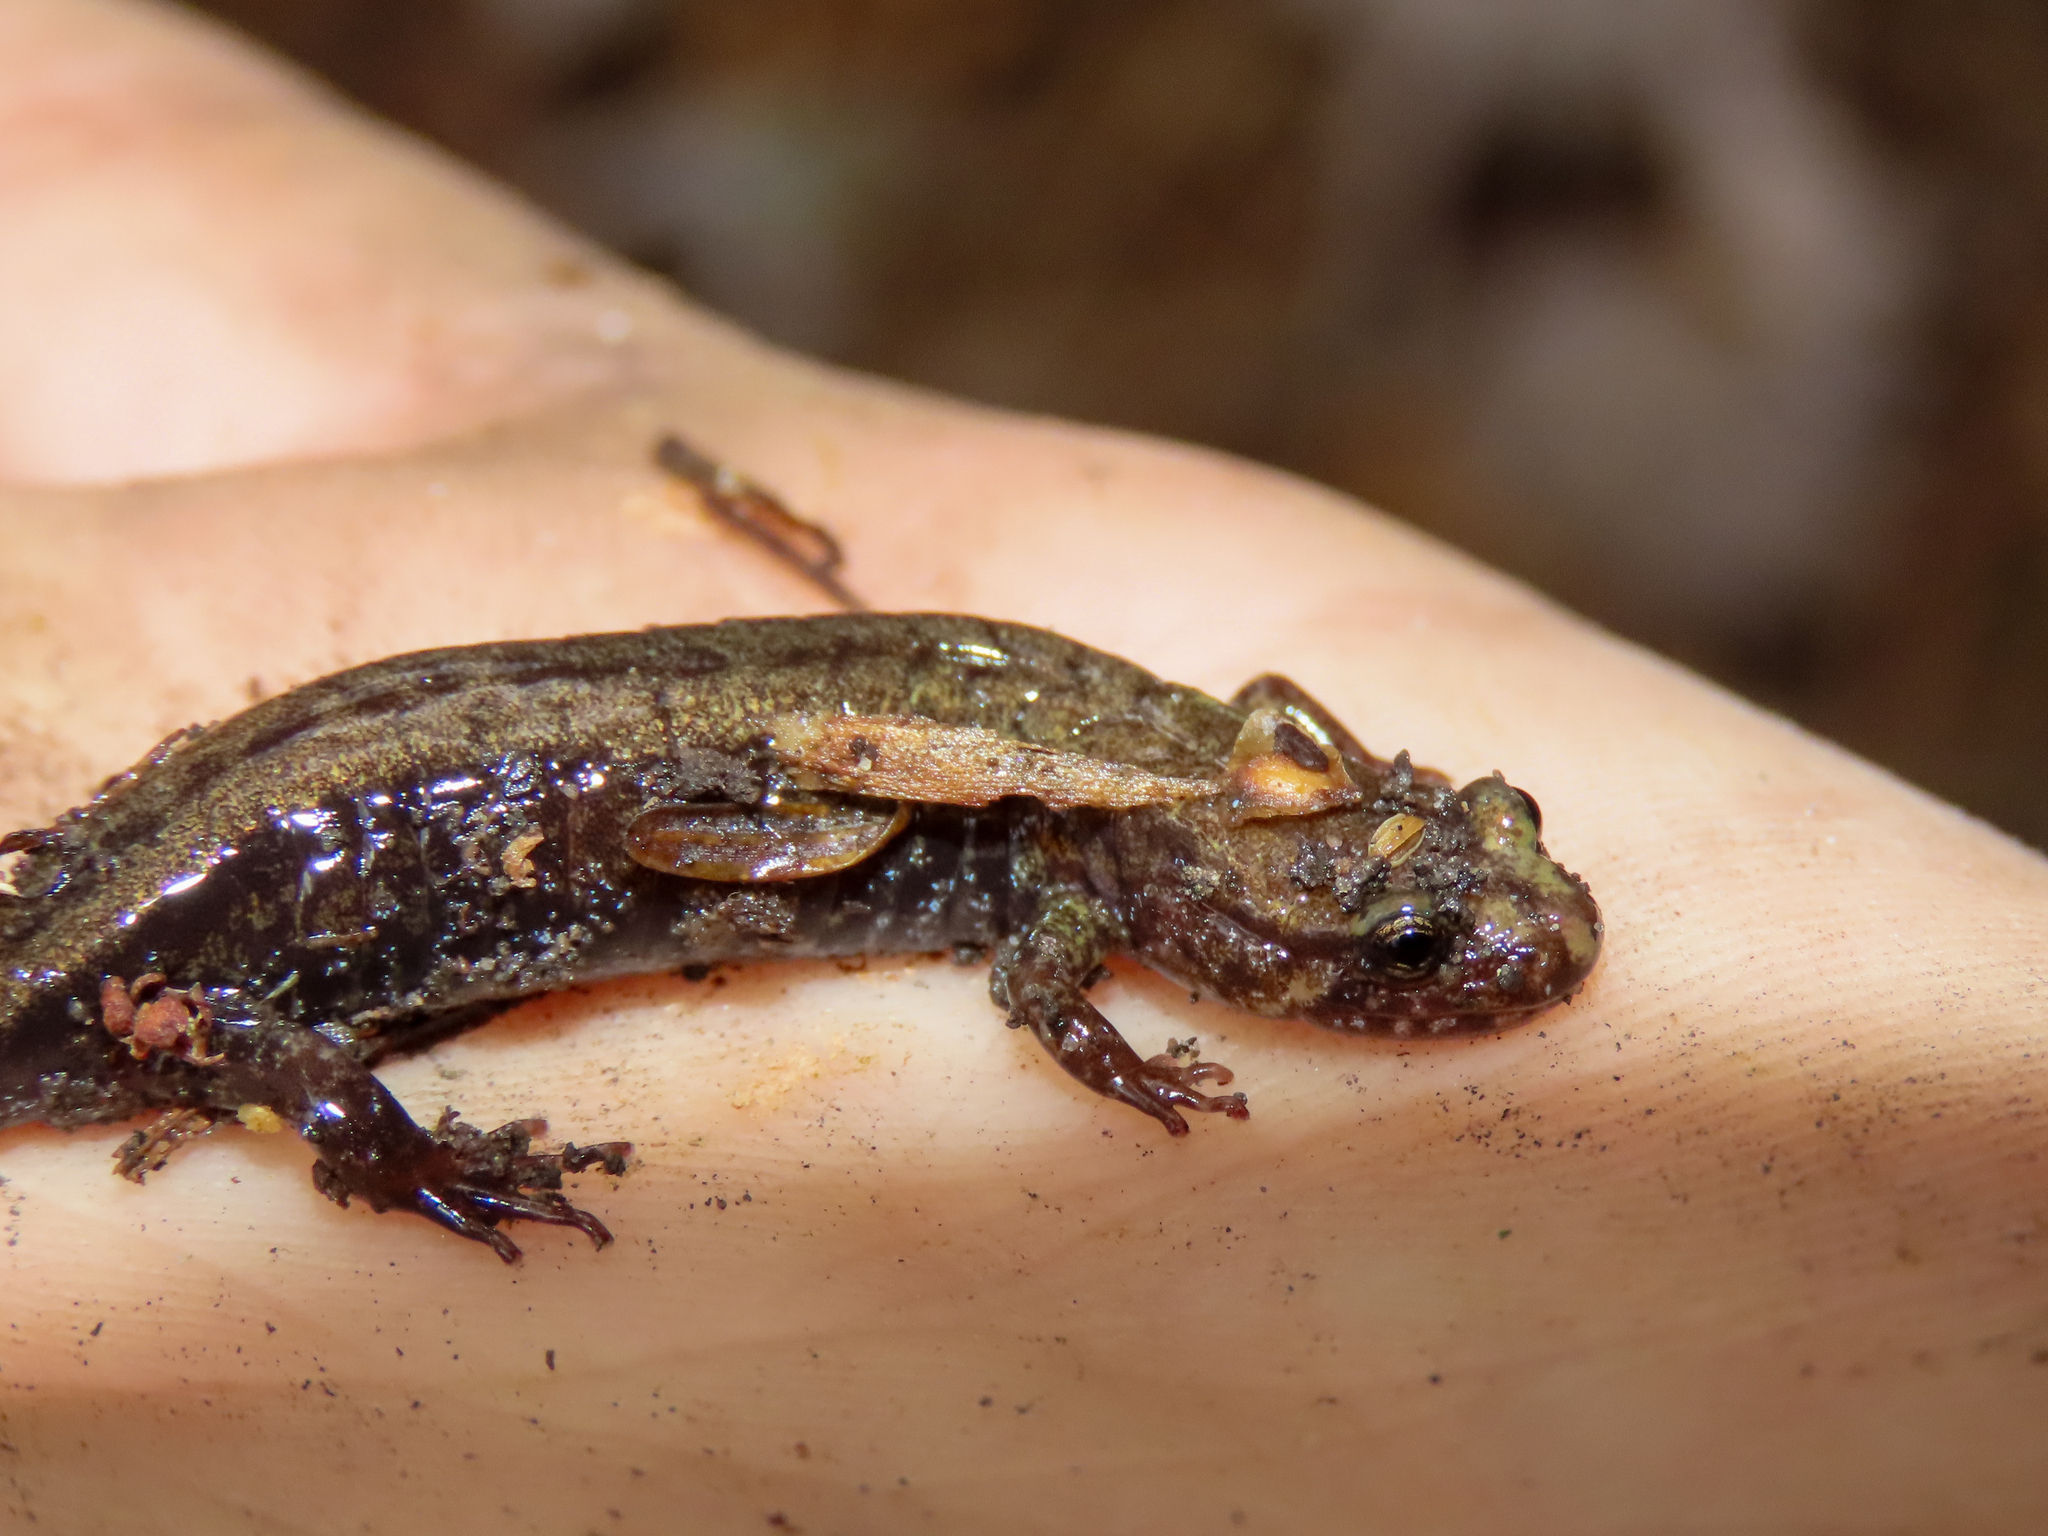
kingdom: Animalia
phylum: Chordata
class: Amphibia
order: Caudata
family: Plethodontidae
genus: Desmognathus
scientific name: Desmognathus ochrophaeus
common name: Allegheny mountain dusky salamander
